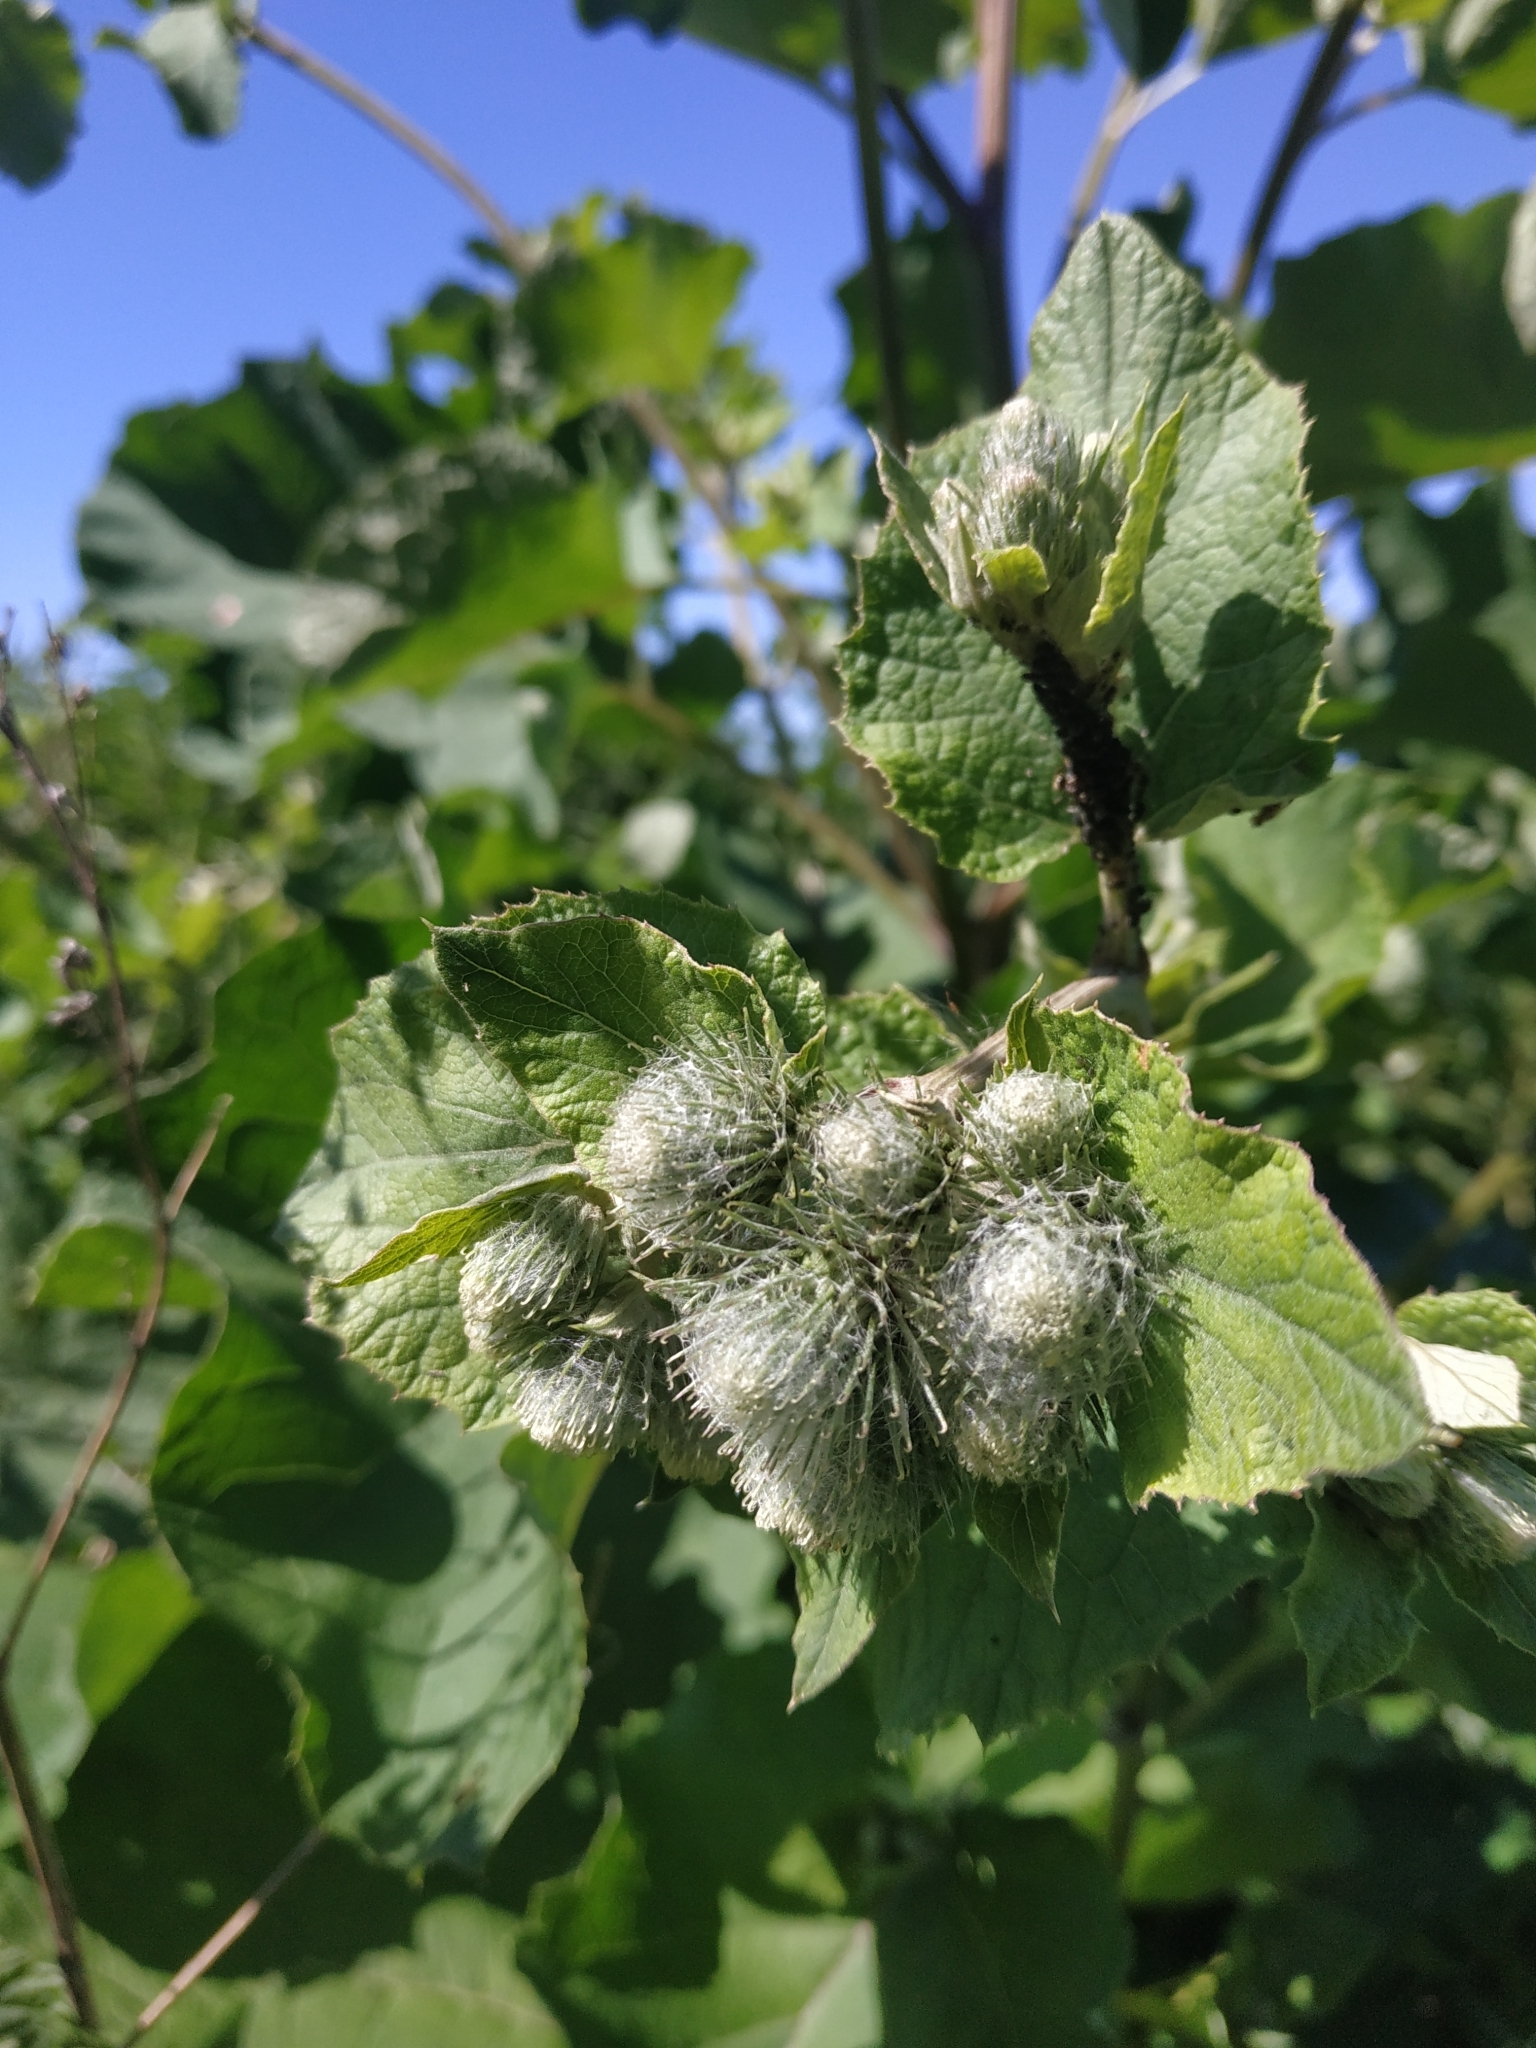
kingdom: Plantae
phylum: Tracheophyta
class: Magnoliopsida
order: Asterales
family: Asteraceae
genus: Arctium
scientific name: Arctium tomentosum
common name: Woolly burdock
